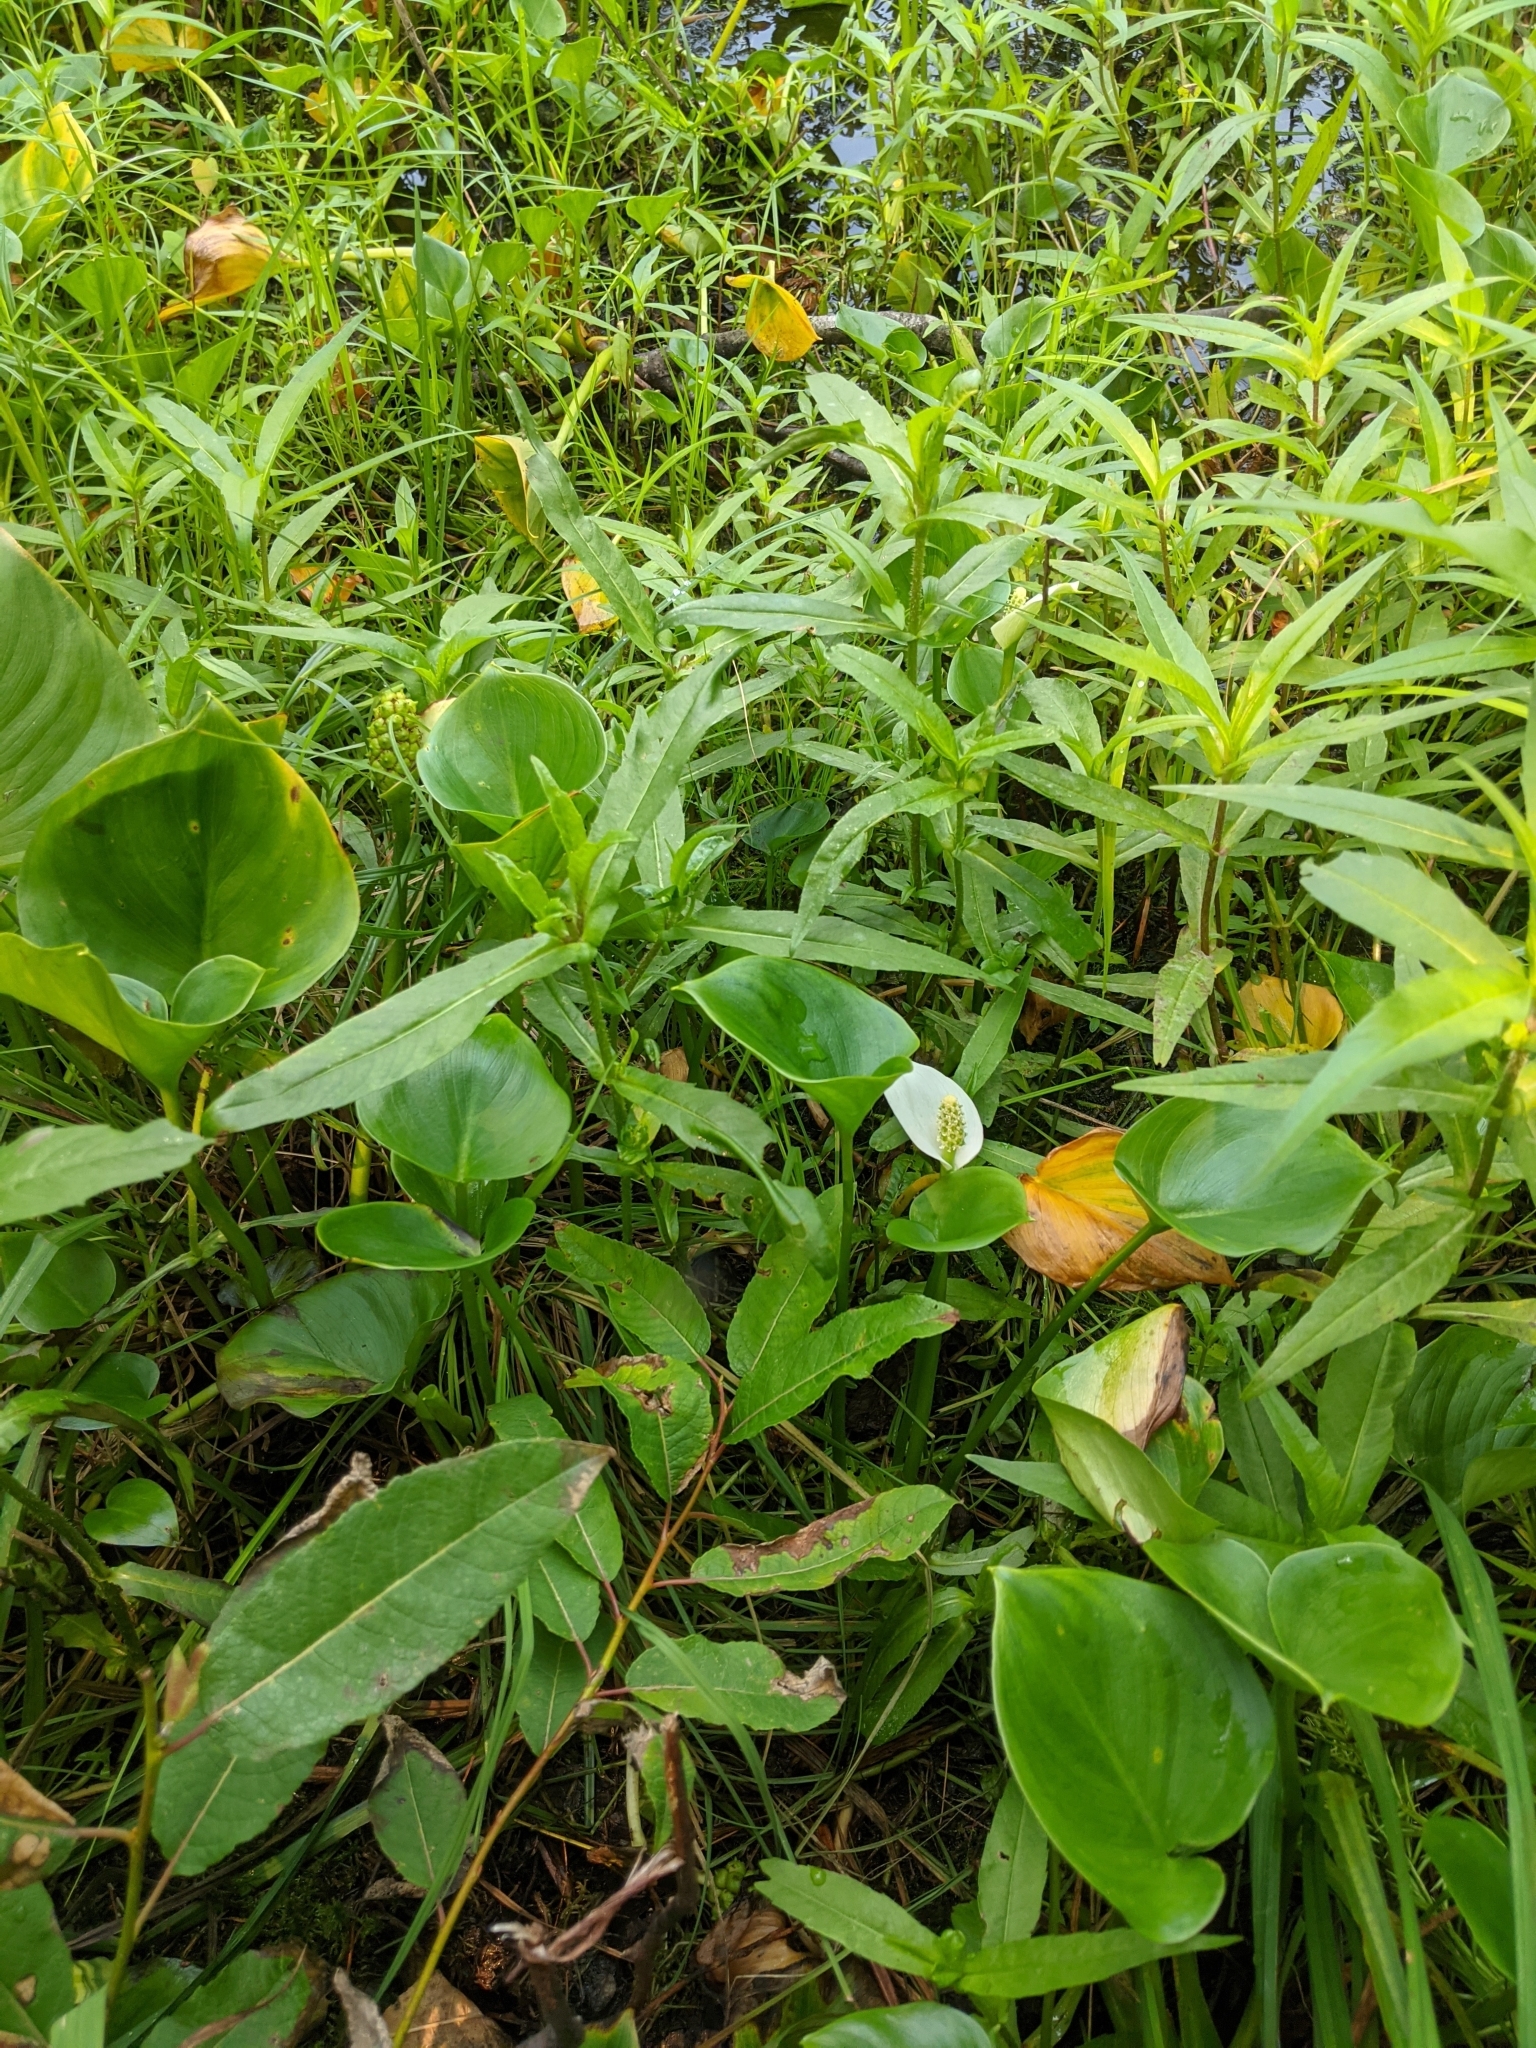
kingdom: Plantae
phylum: Tracheophyta
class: Liliopsida
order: Alismatales
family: Araceae
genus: Calla
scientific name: Calla palustris
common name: Bog arum
